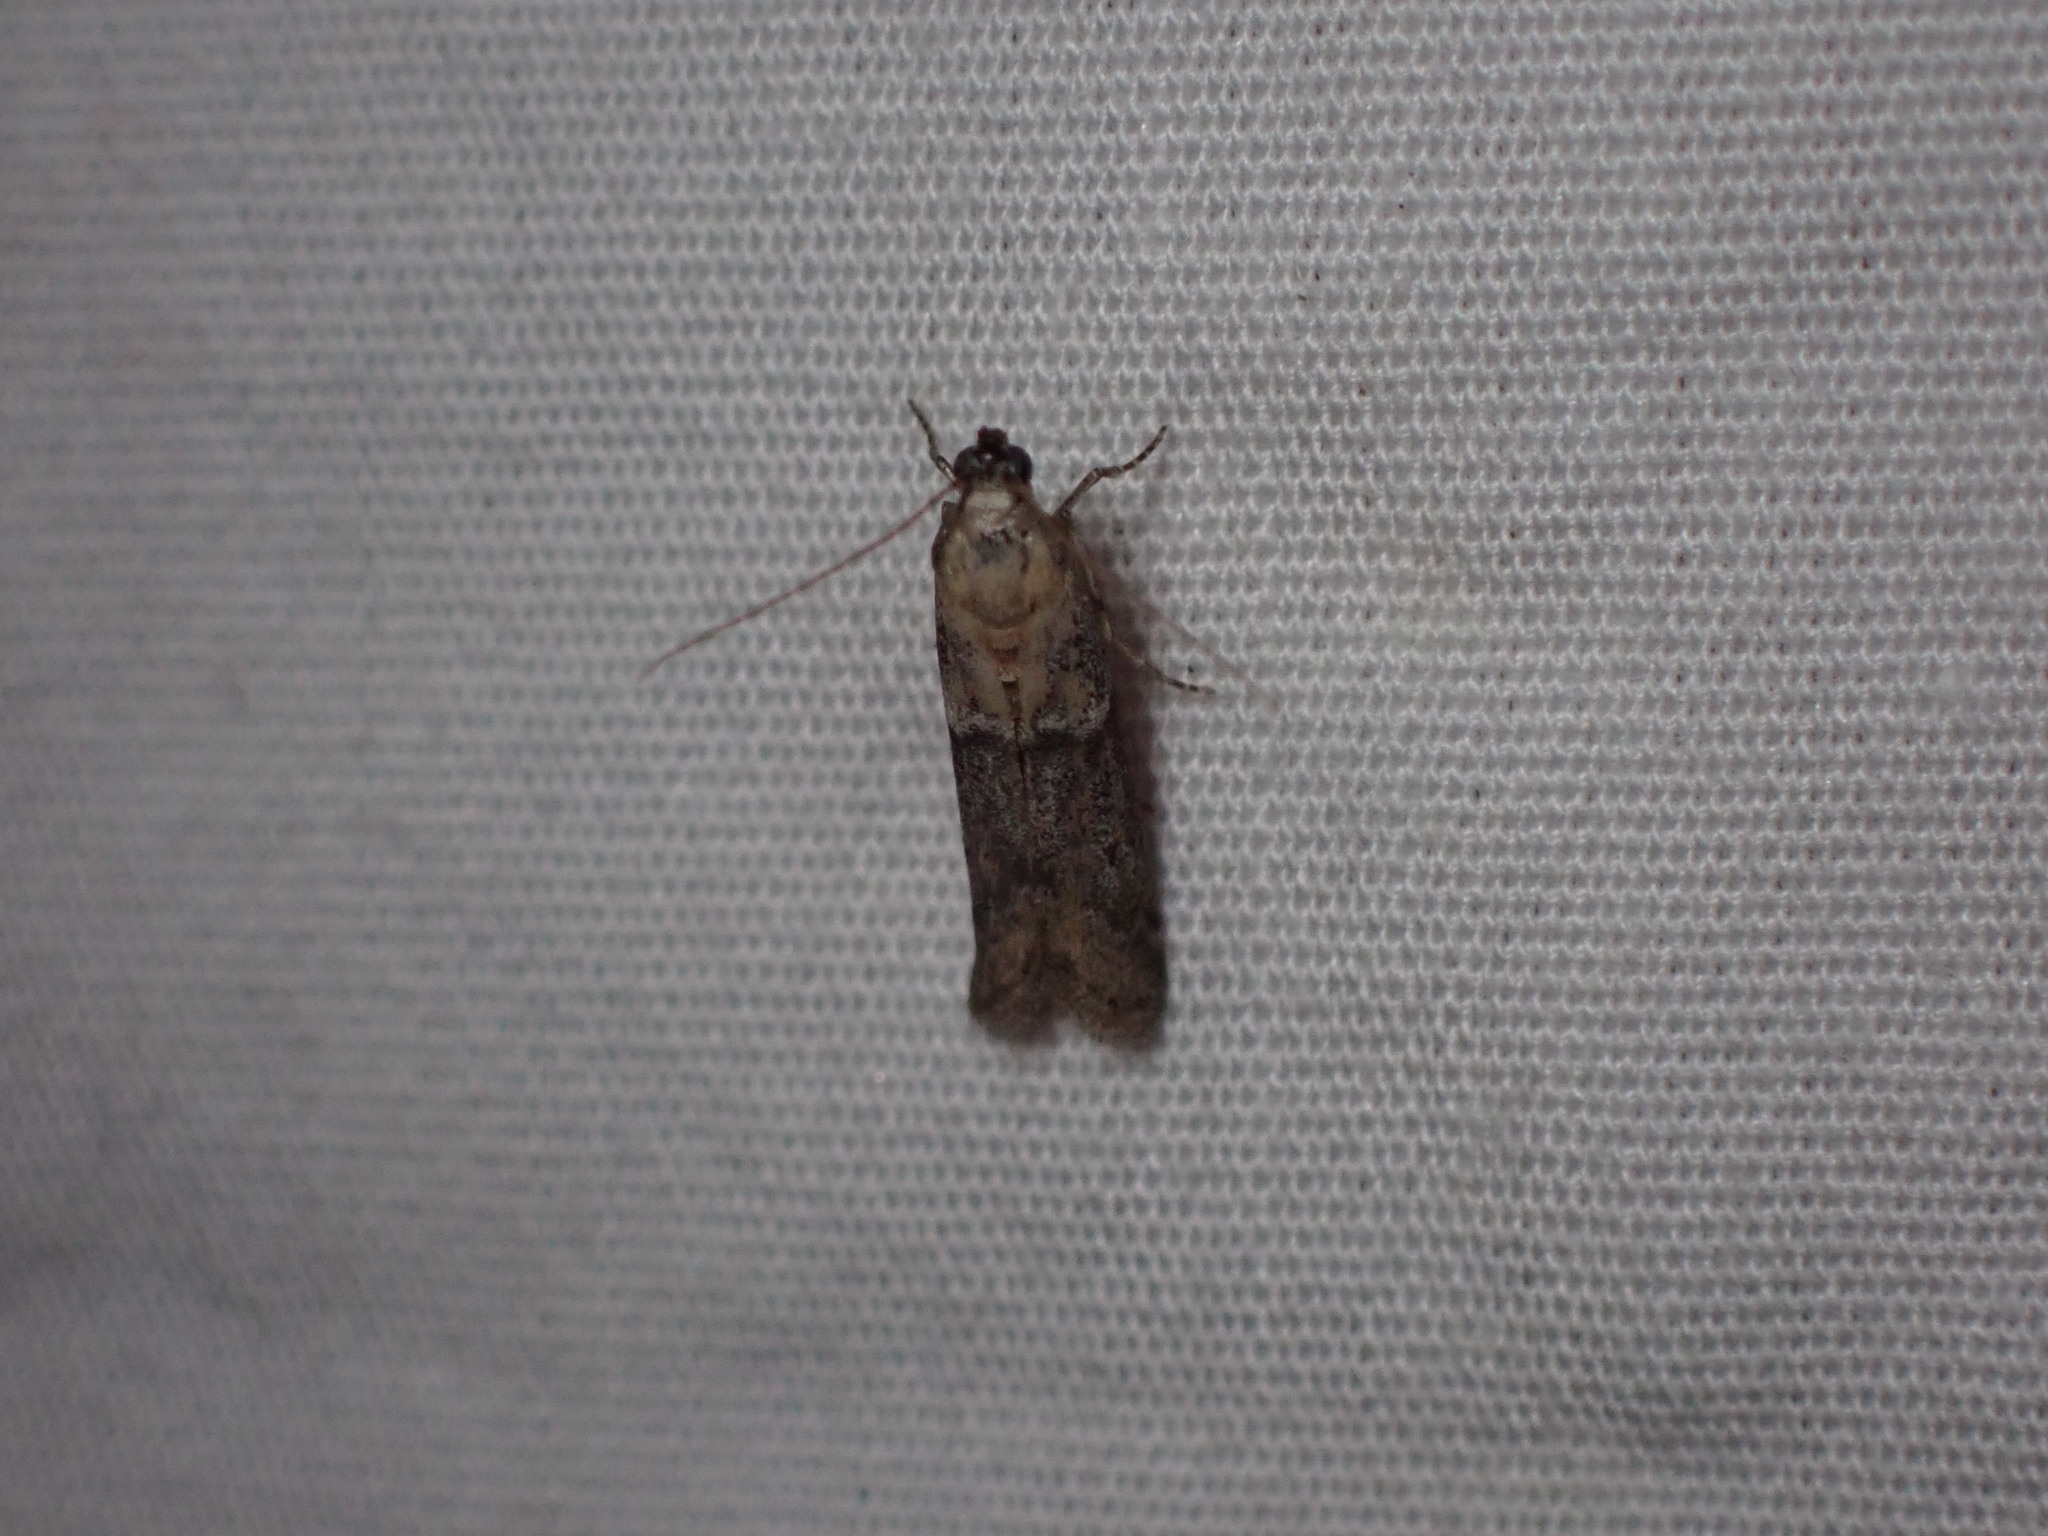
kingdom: Animalia
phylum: Arthropoda
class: Insecta
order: Lepidoptera
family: Pyralidae
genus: Ephestiodes
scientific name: Ephestiodes gilvescentella
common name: Moth
